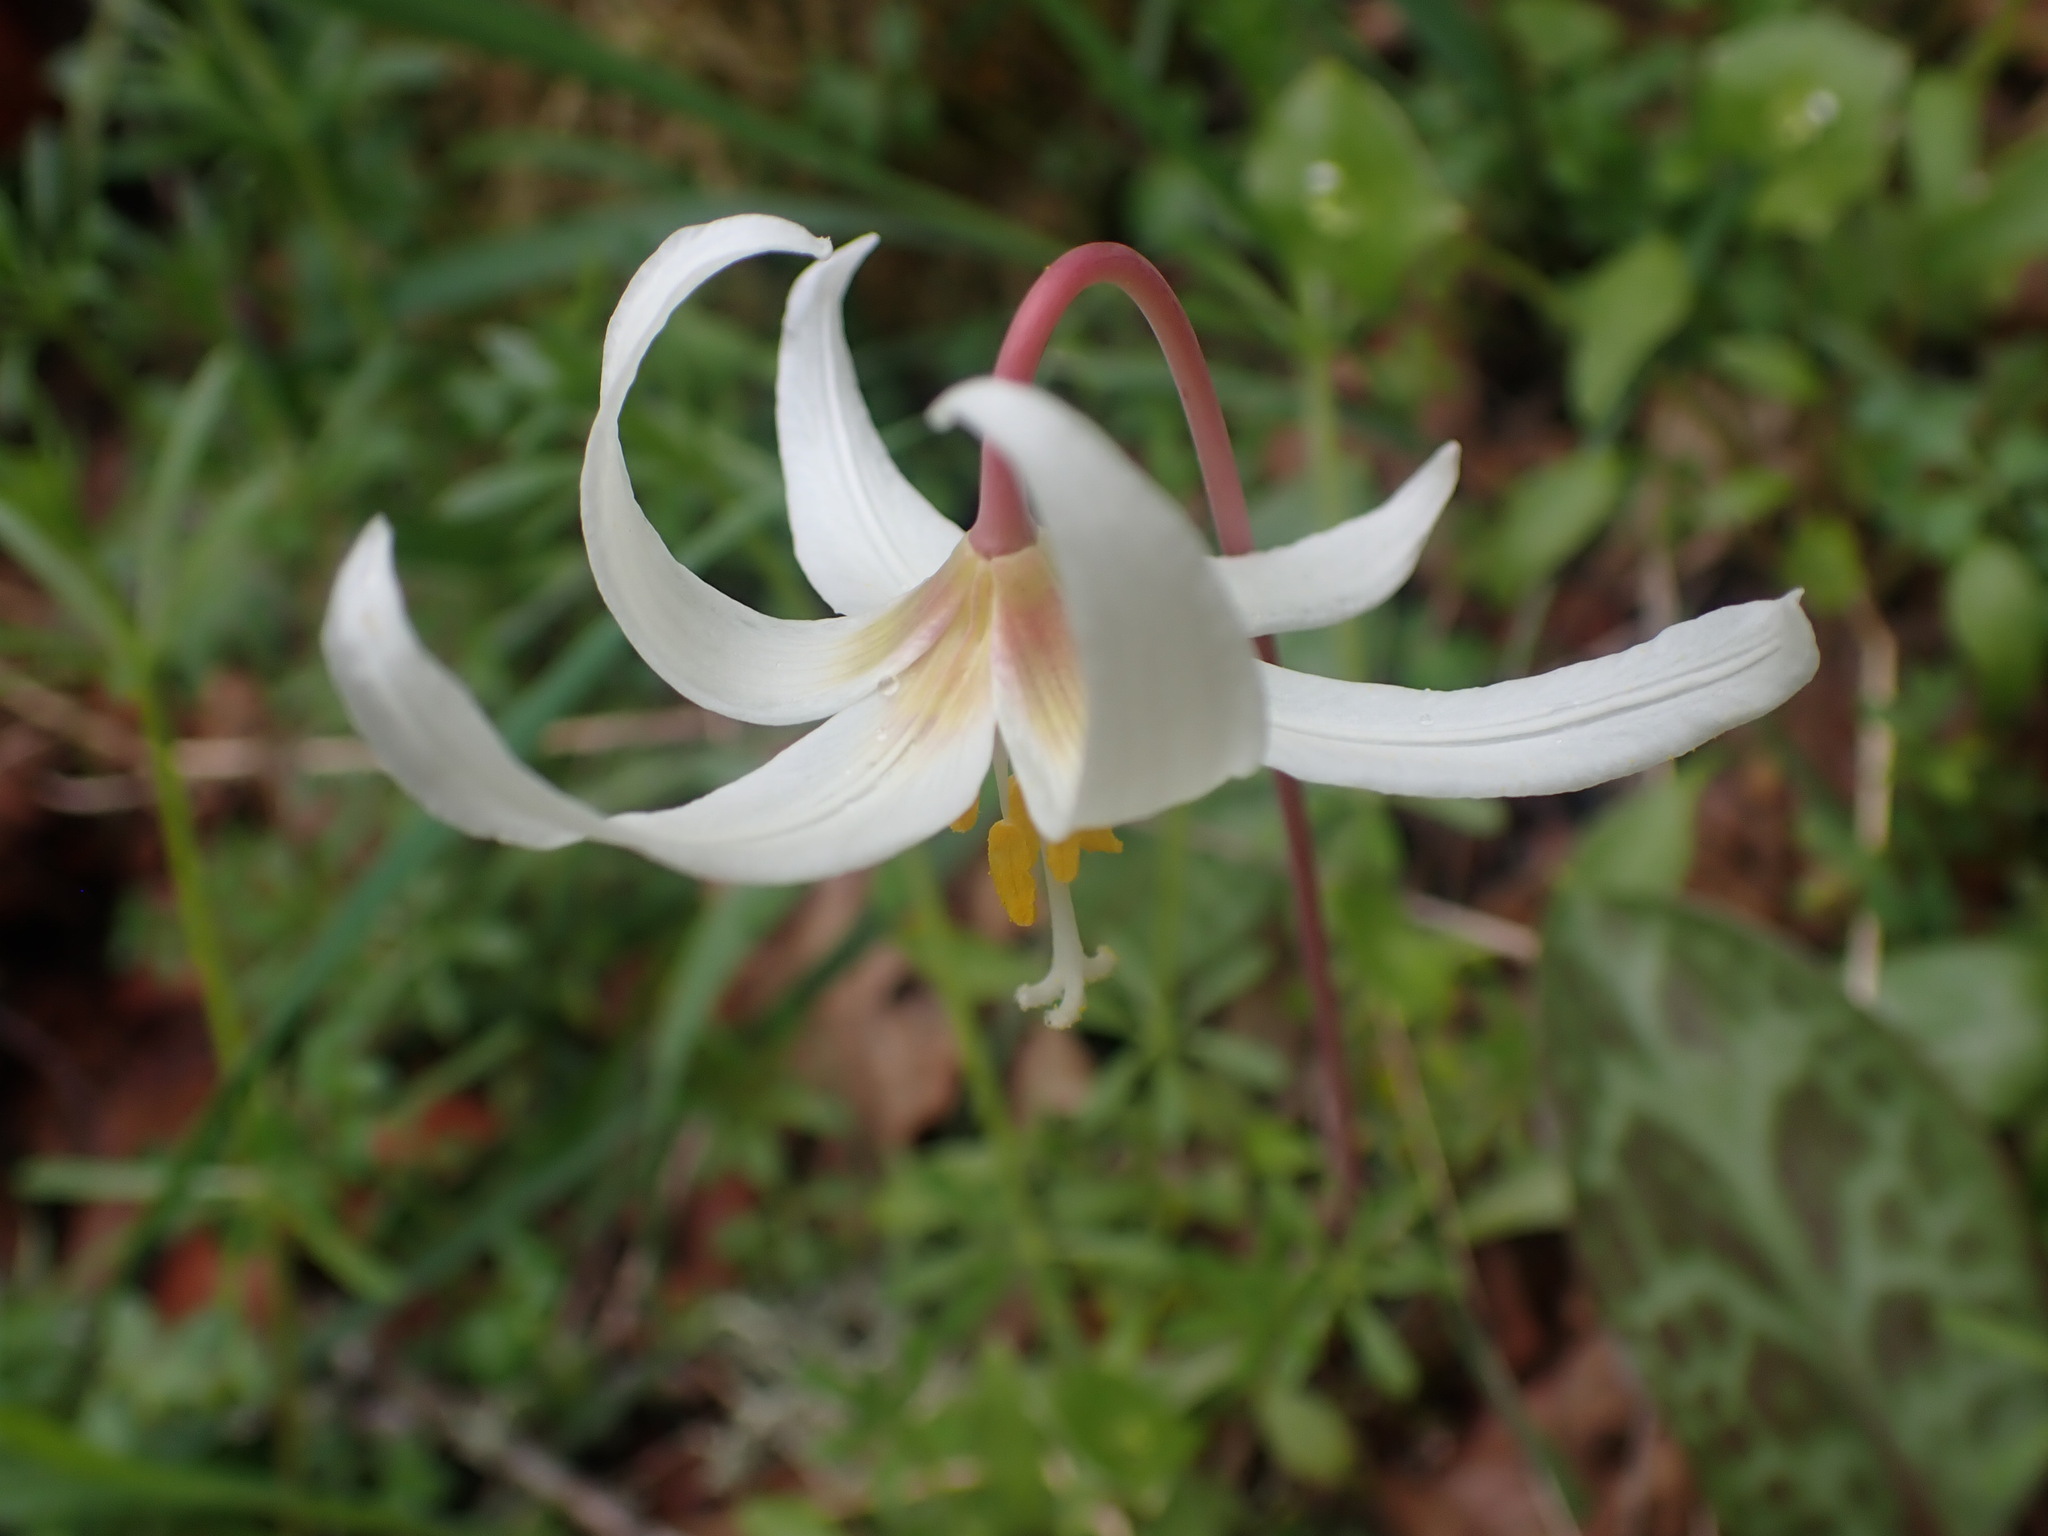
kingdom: Plantae
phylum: Tracheophyta
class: Liliopsida
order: Liliales
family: Liliaceae
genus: Erythronium
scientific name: Erythronium oregonum
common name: Giant adder's-tongue
